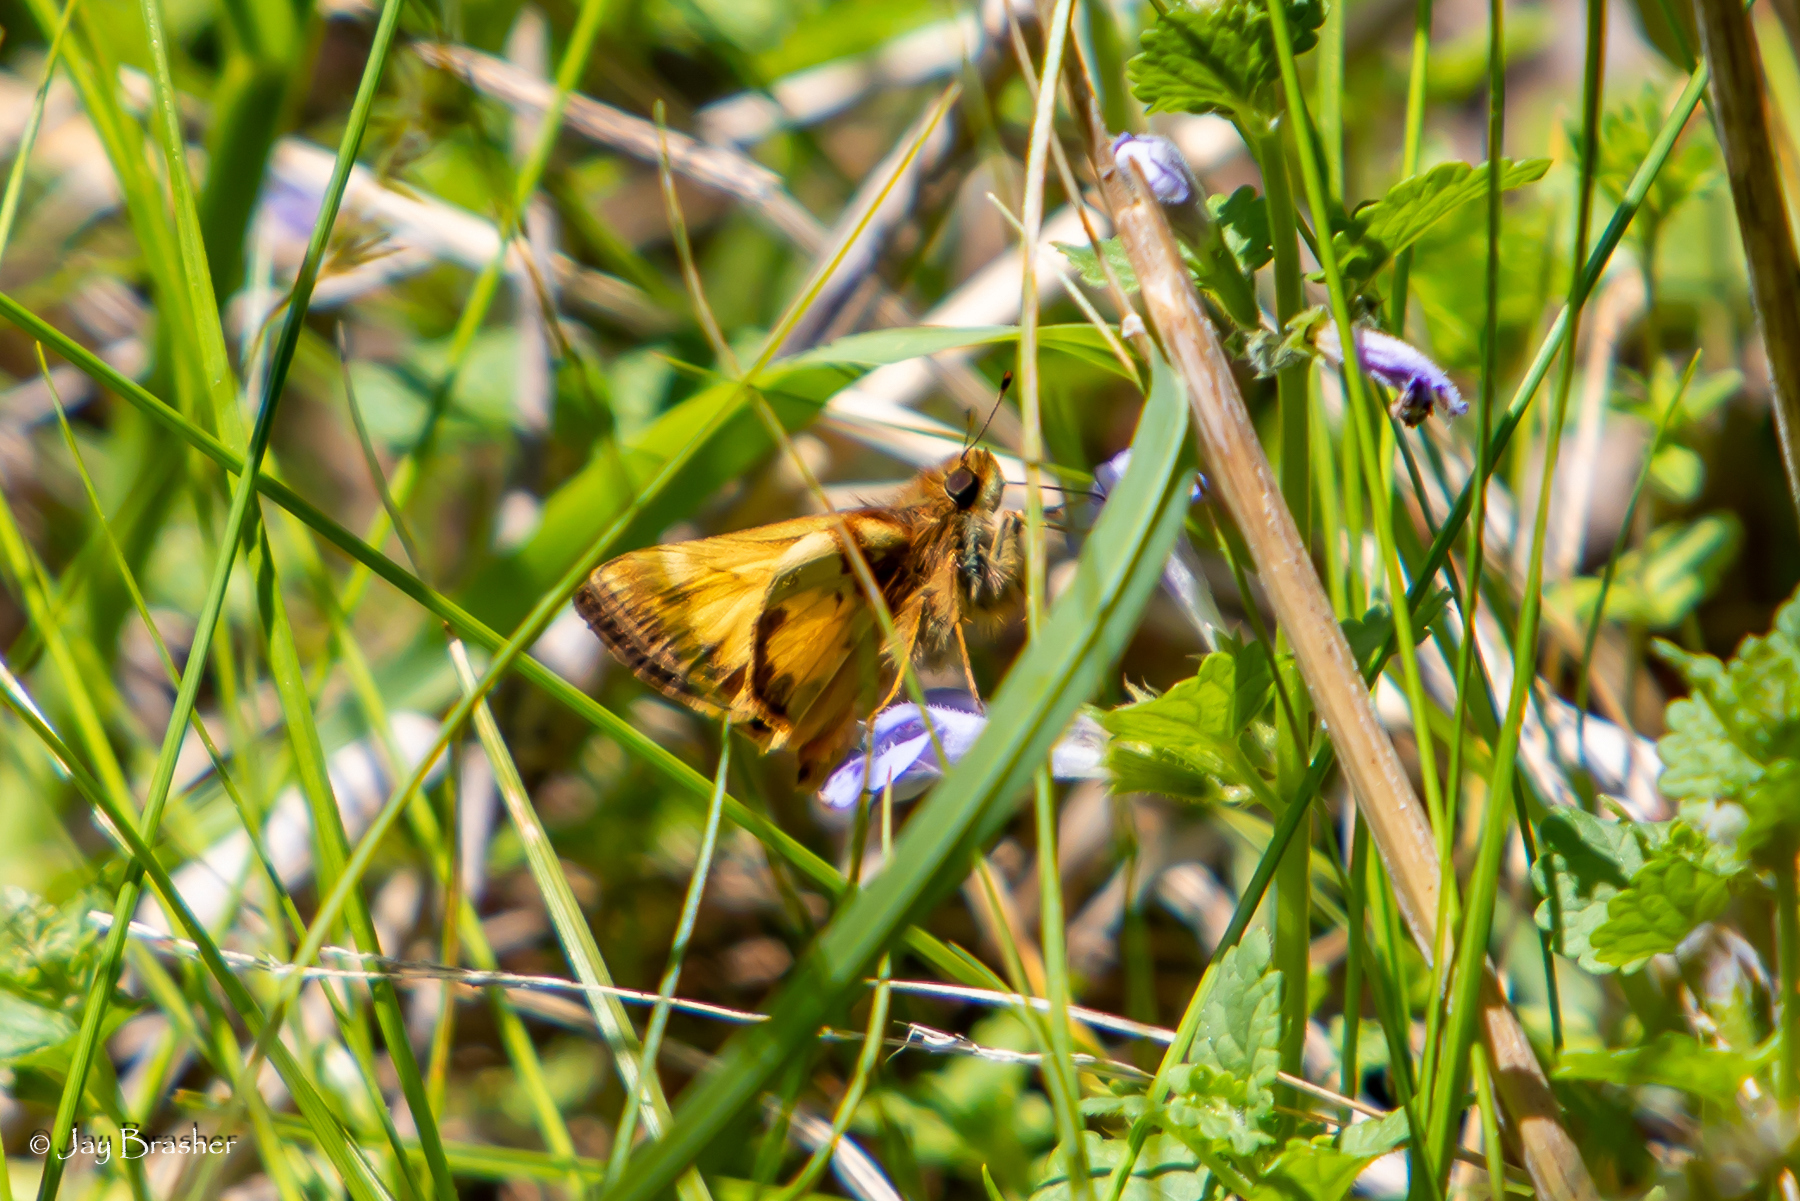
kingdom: Animalia
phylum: Arthropoda
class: Insecta
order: Lepidoptera
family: Hesperiidae
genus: Lon
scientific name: Lon zabulon
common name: Zabulon skipper
